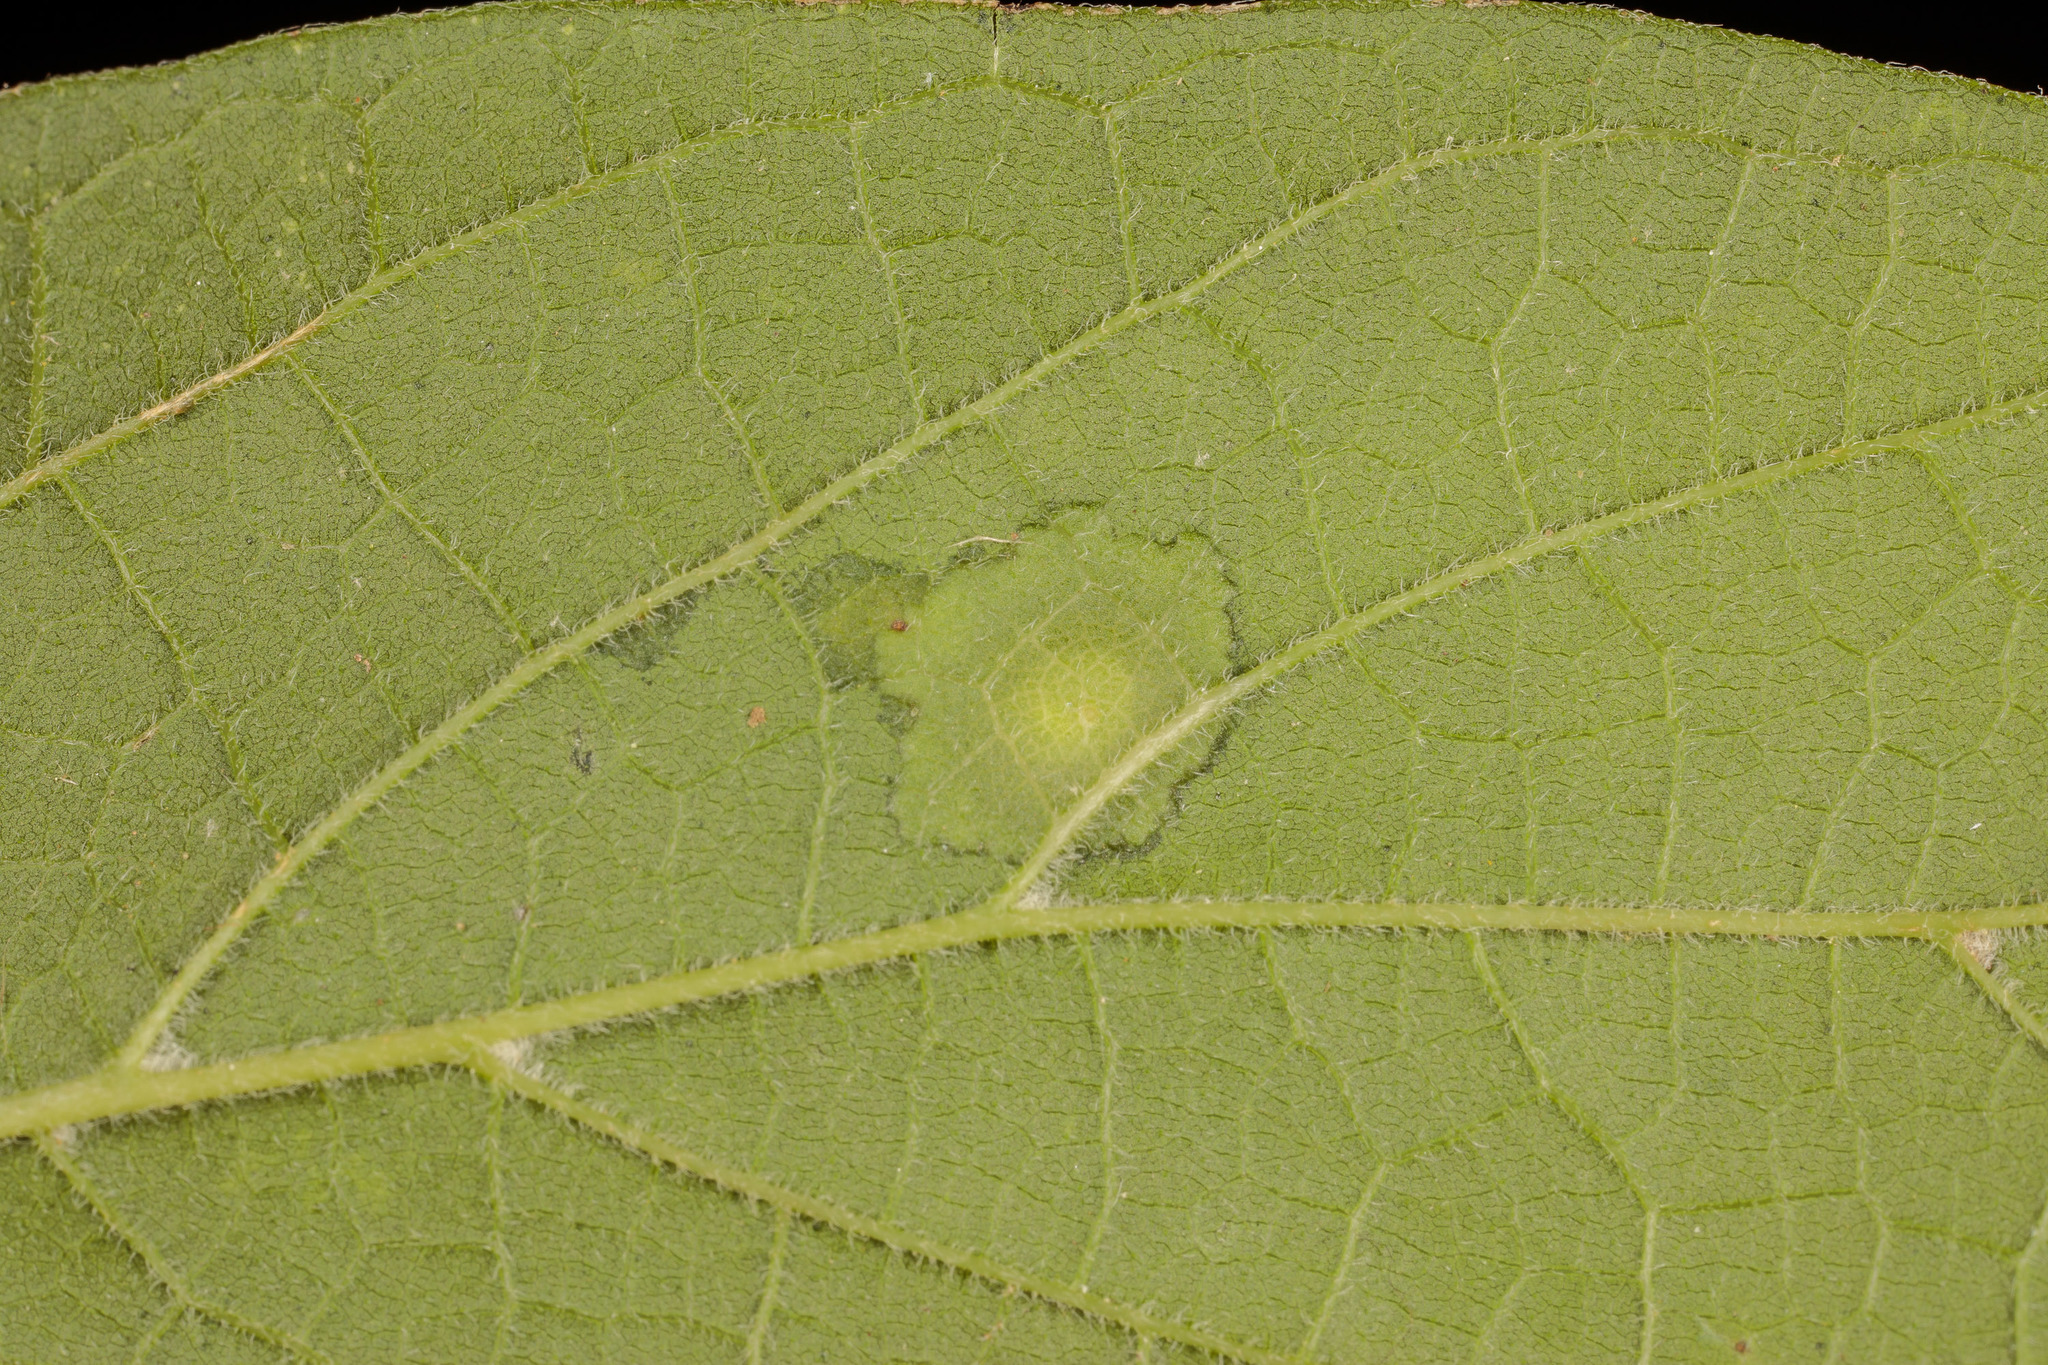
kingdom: Animalia
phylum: Arthropoda
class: Insecta
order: Hemiptera
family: Aphalaridae
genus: Pachypsylla
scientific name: Pachypsylla celtidisvesicula
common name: Hackberry blister gall psyllid
